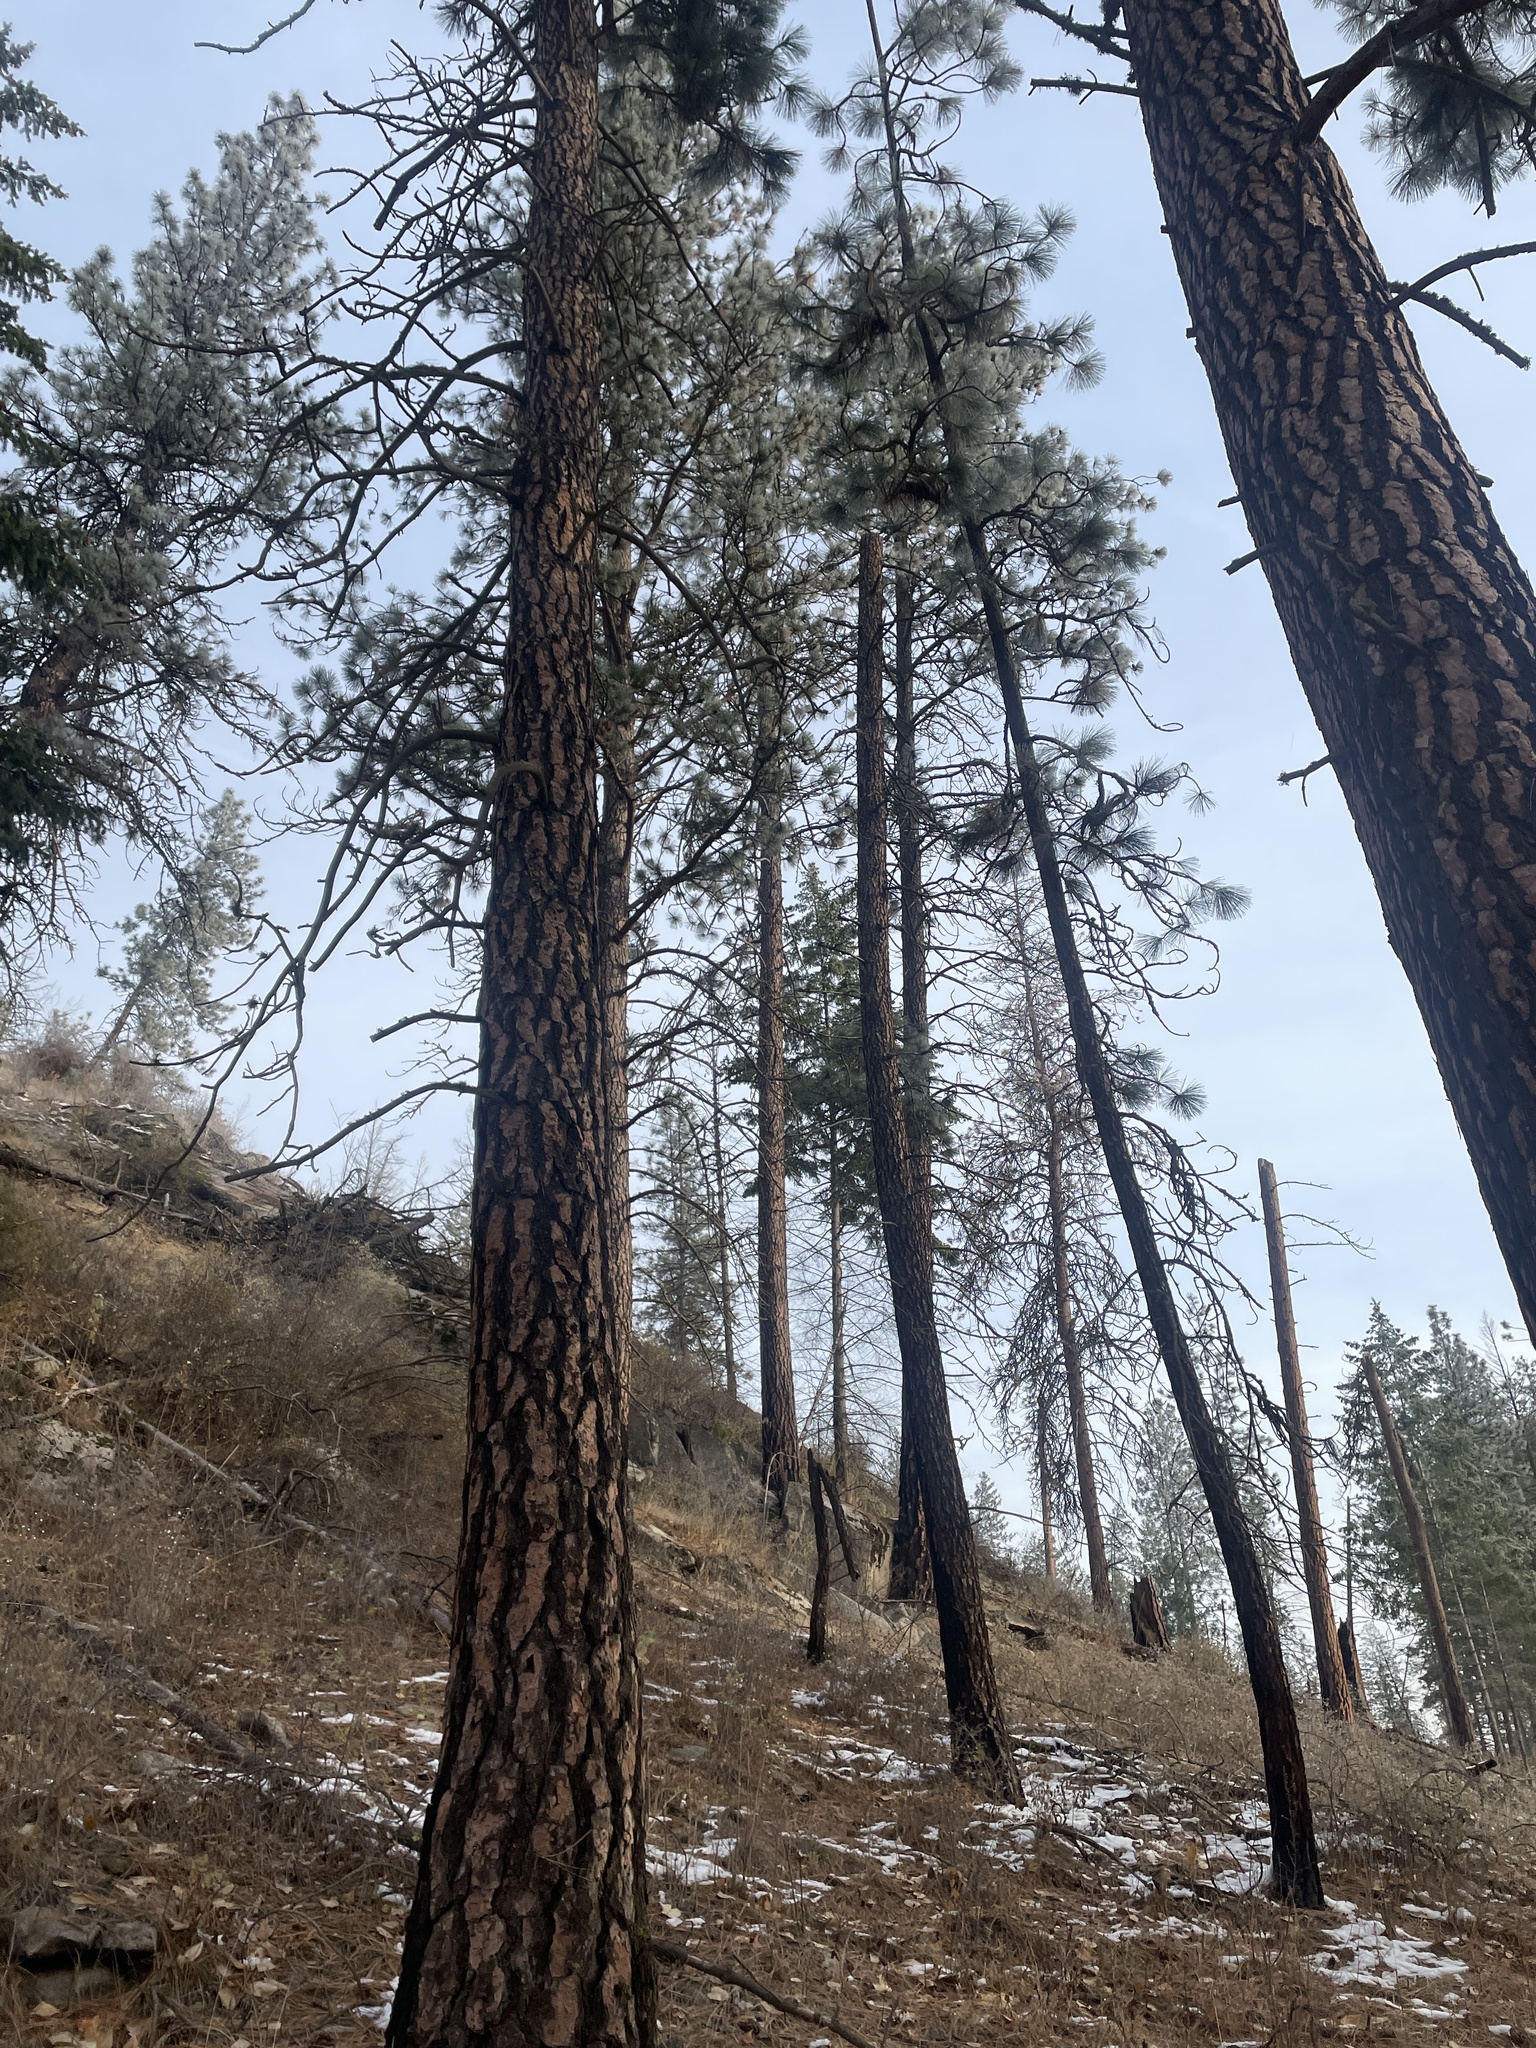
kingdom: Plantae
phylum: Tracheophyta
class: Pinopsida
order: Pinales
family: Pinaceae
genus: Pinus
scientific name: Pinus ponderosa
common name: Western yellow-pine
